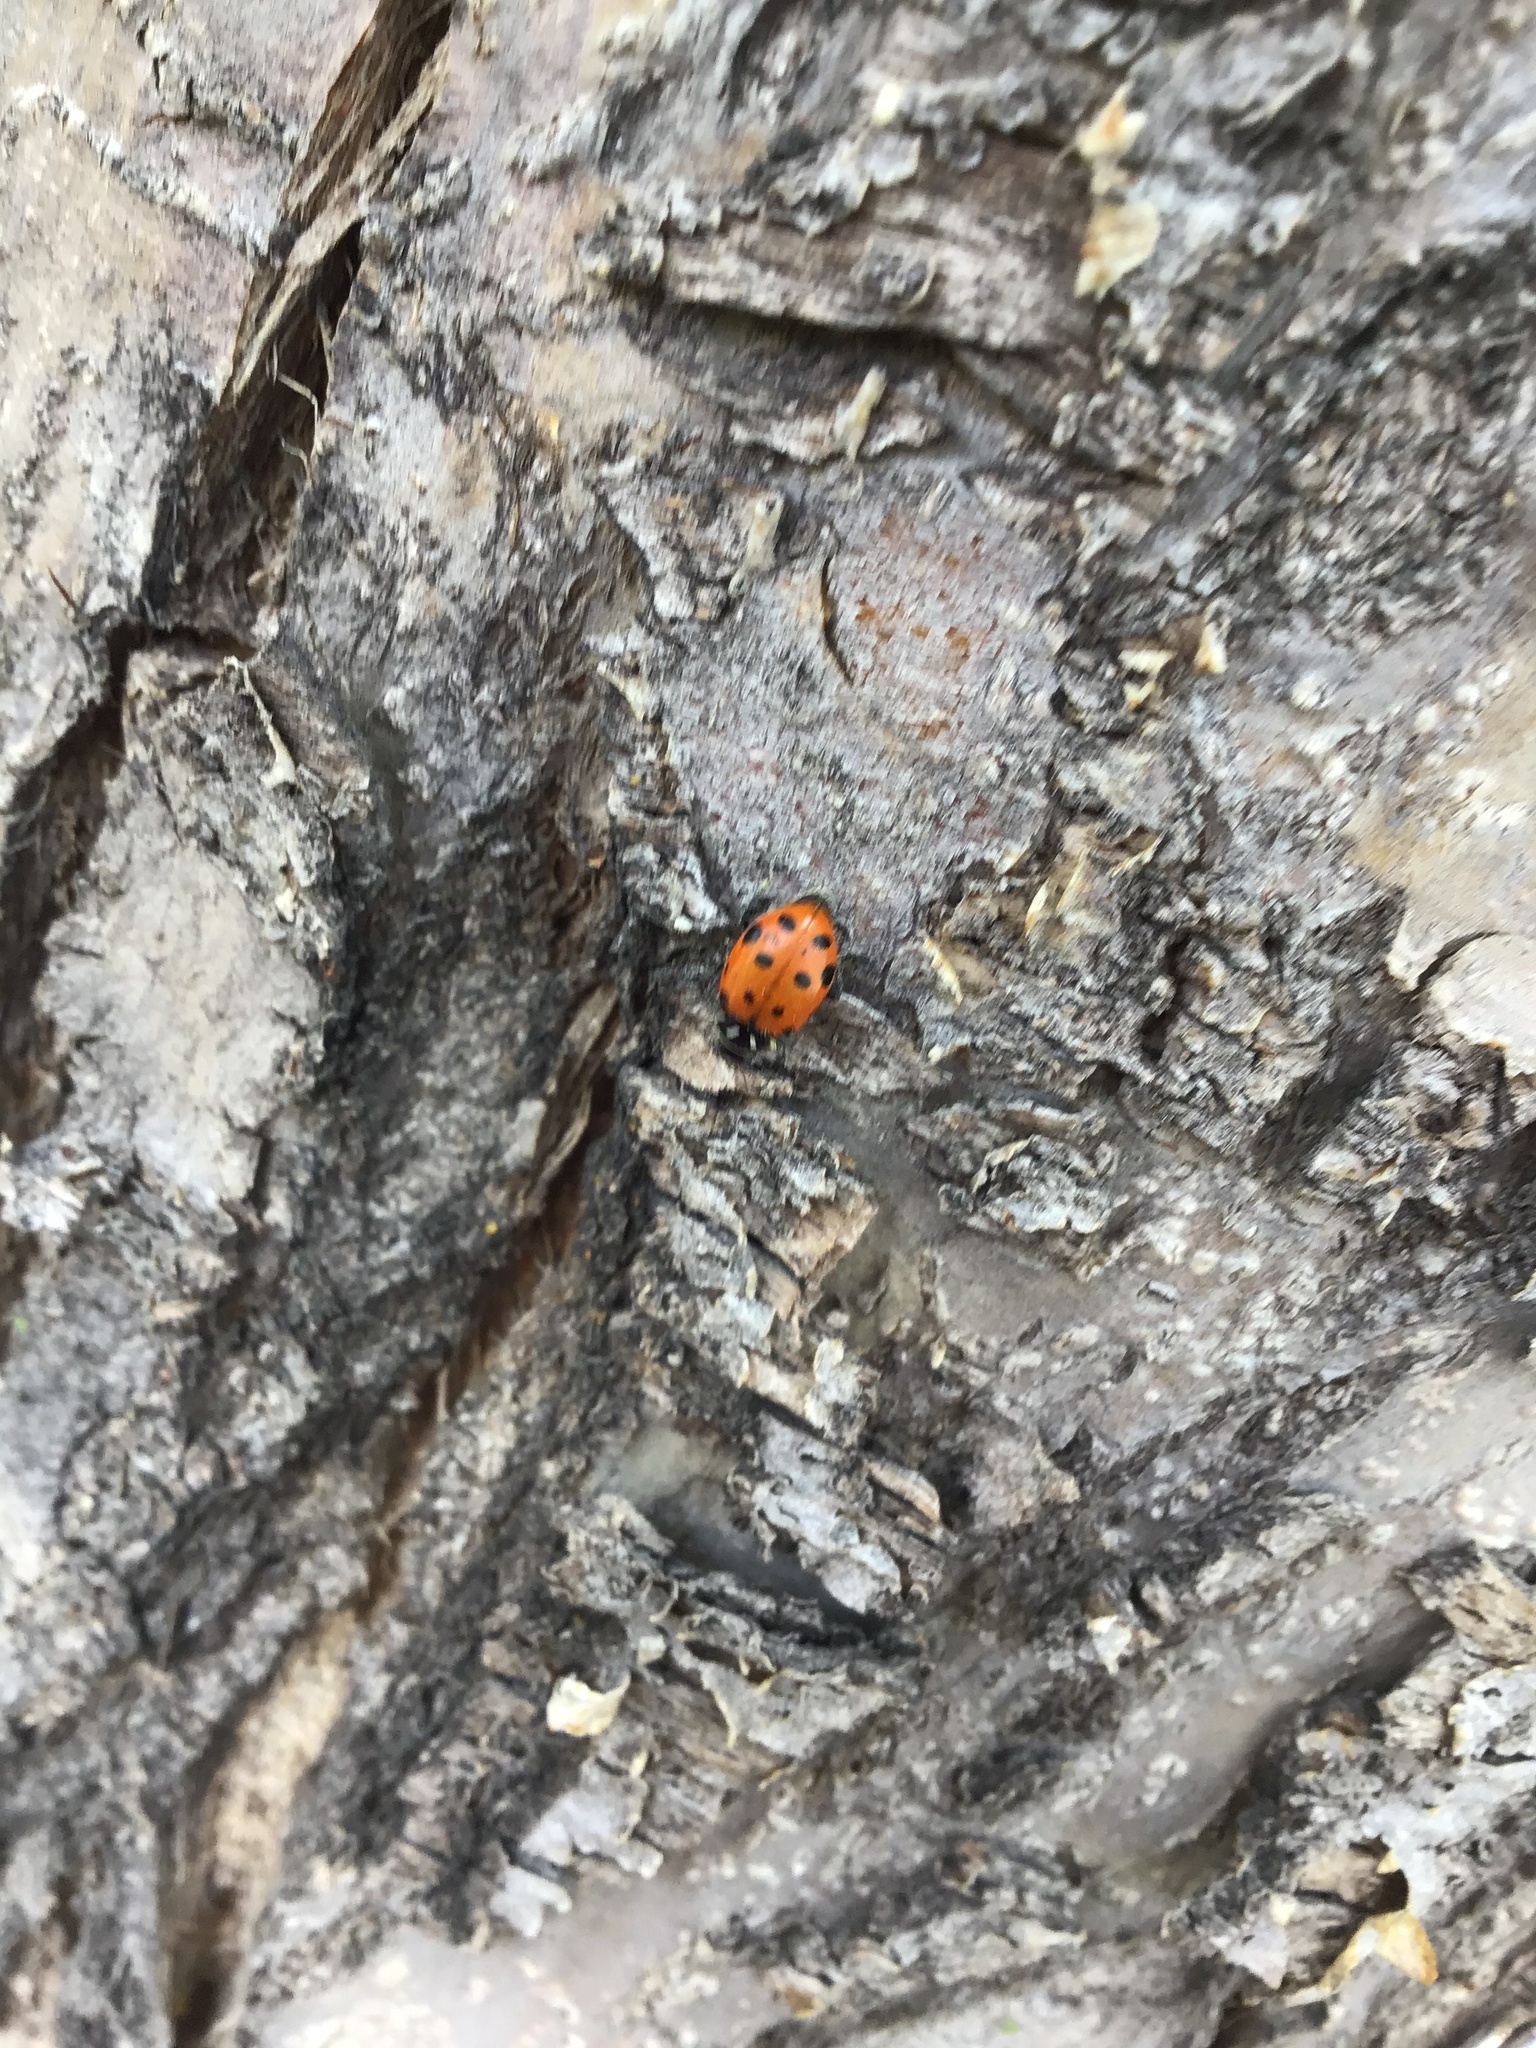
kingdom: Animalia
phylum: Arthropoda
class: Insecta
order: Coleoptera
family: Coccinellidae
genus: Hippodamia
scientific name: Hippodamia convergens
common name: Convergent lady beetle
